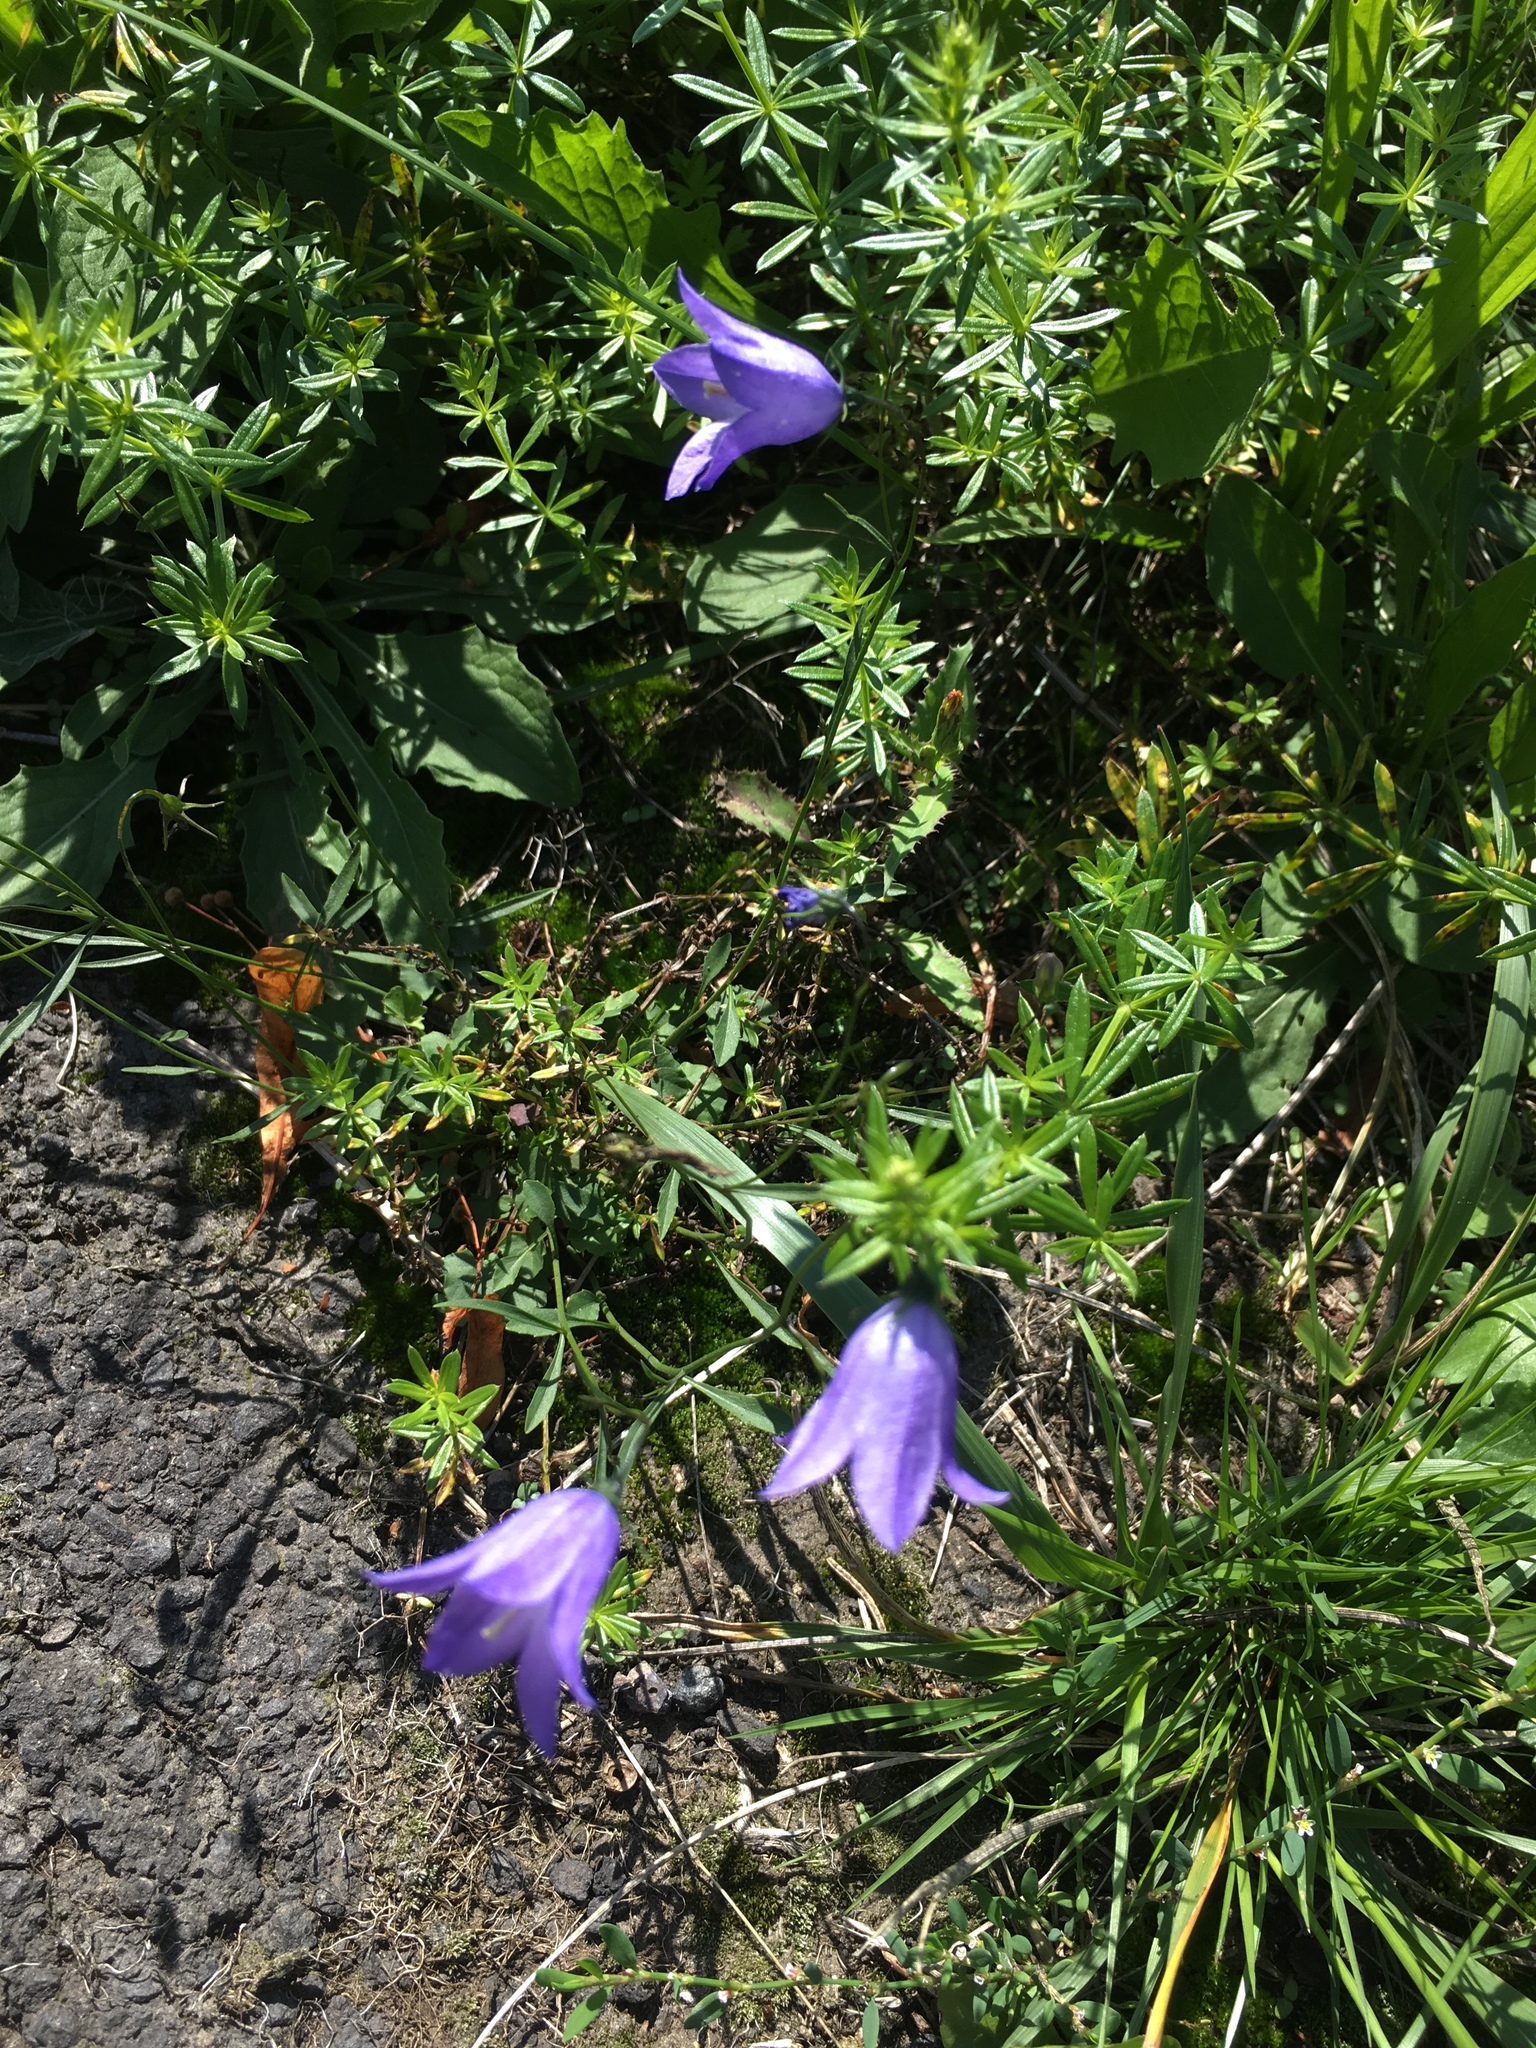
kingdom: Plantae
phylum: Tracheophyta
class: Magnoliopsida
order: Asterales
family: Campanulaceae
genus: Campanula
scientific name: Campanula rotundifolia
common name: Harebell
